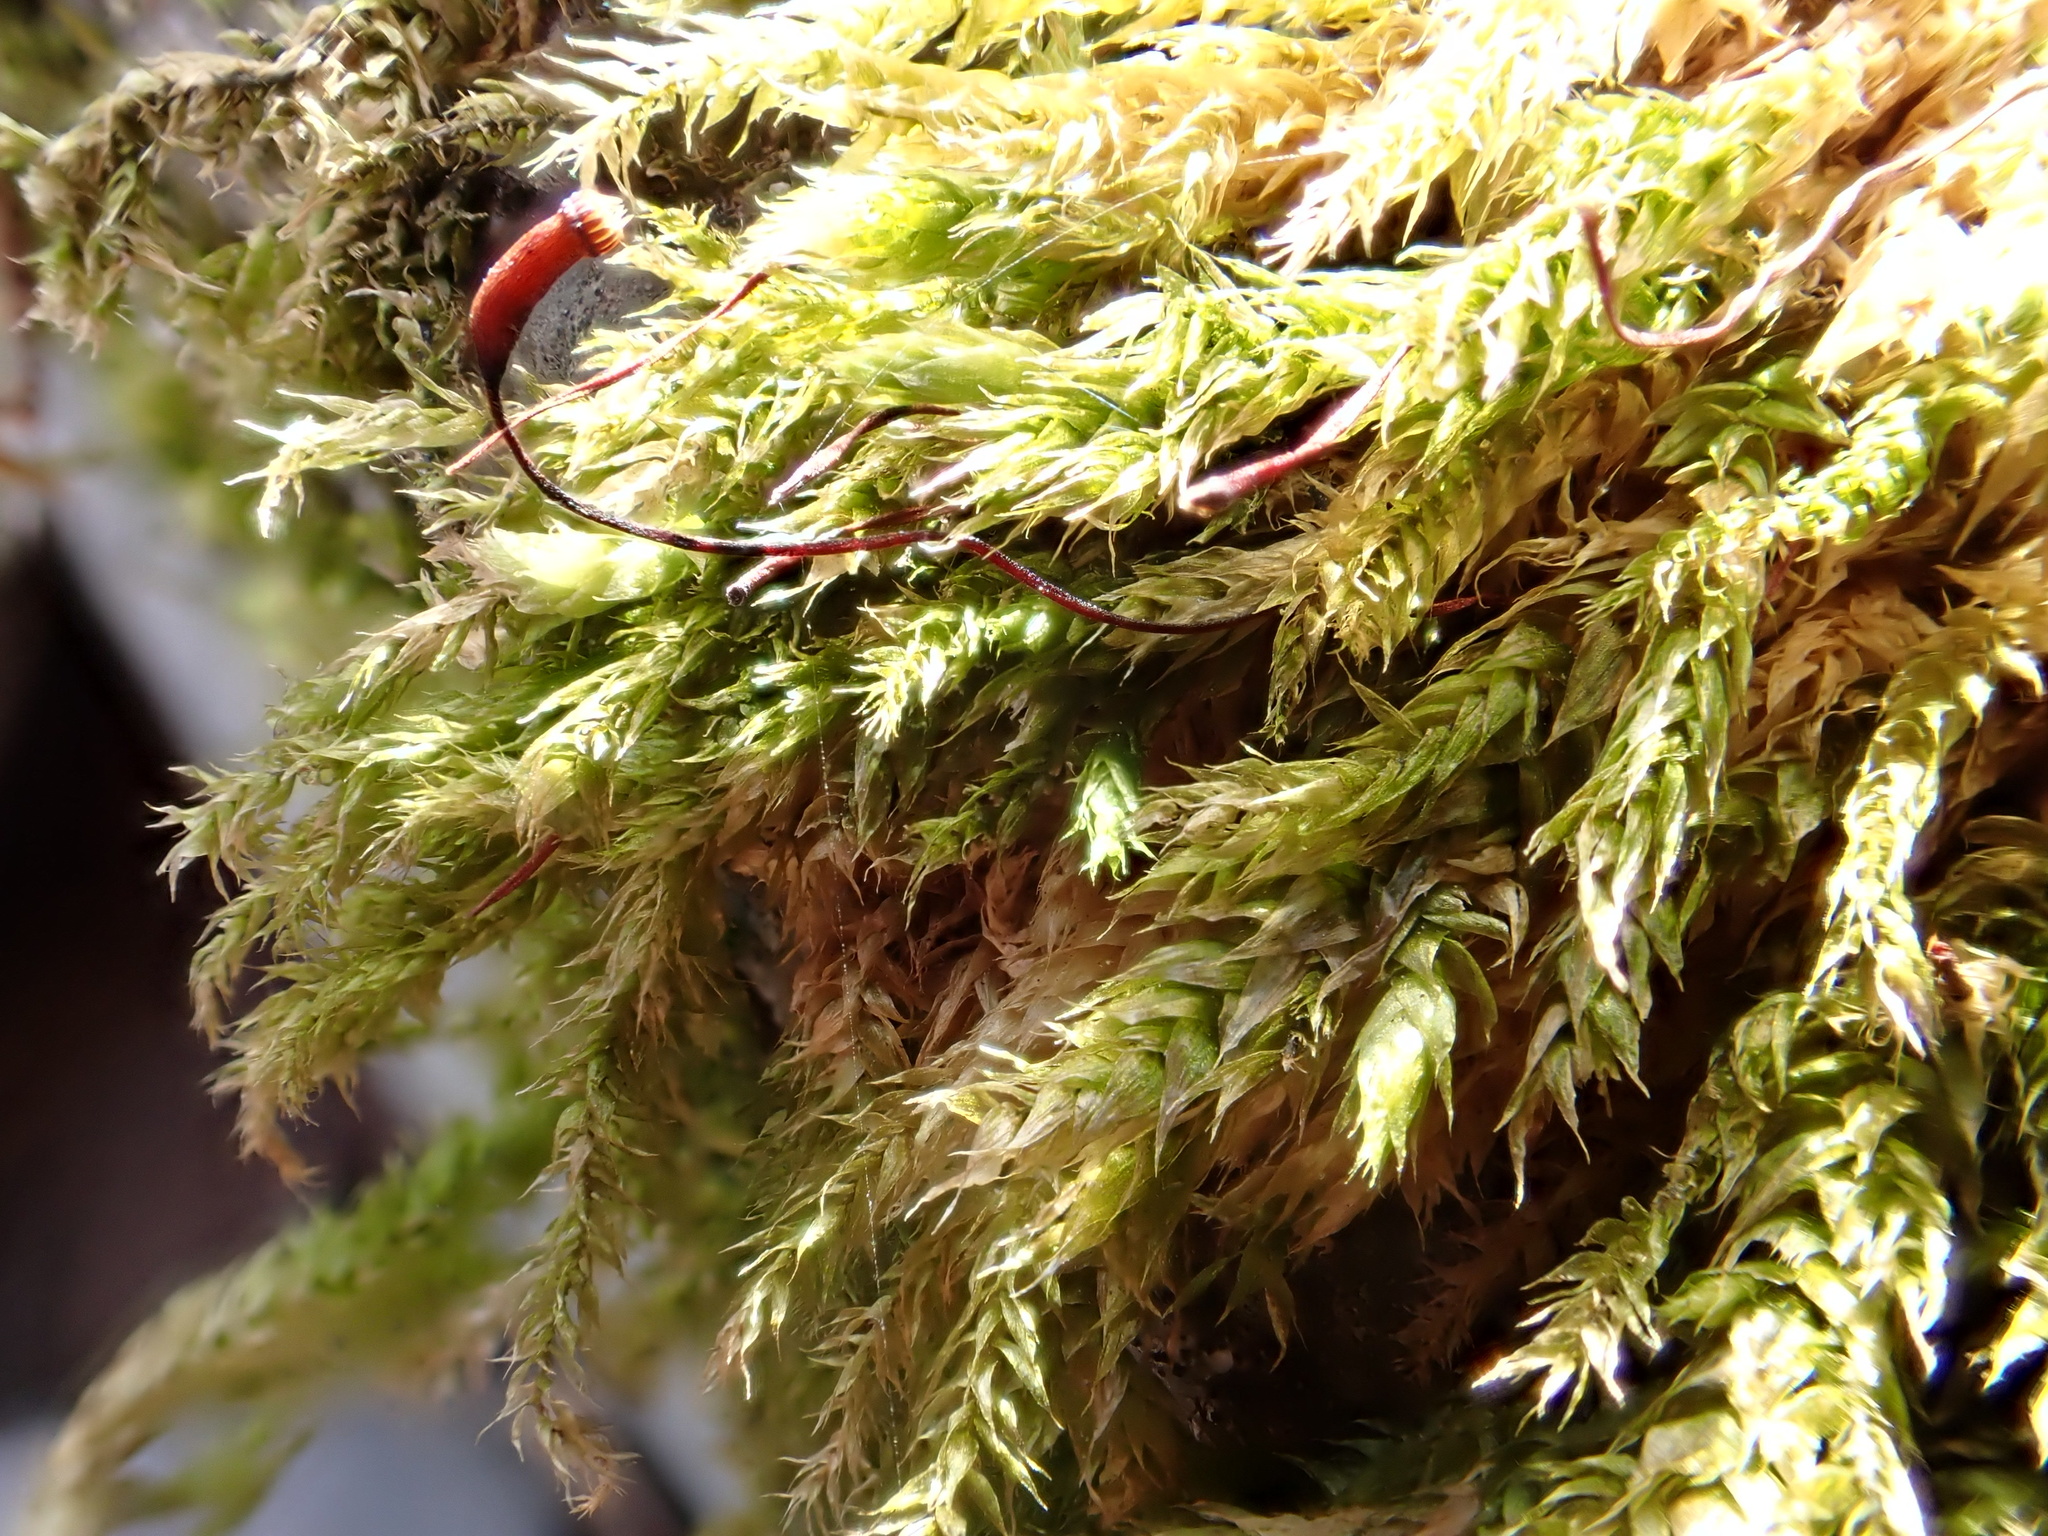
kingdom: Plantae
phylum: Bryophyta
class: Bryopsida
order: Hypnales
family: Brachytheciaceae
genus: Brachythecium
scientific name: Brachythecium rutabulum
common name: Rough-stalked feather-moss
